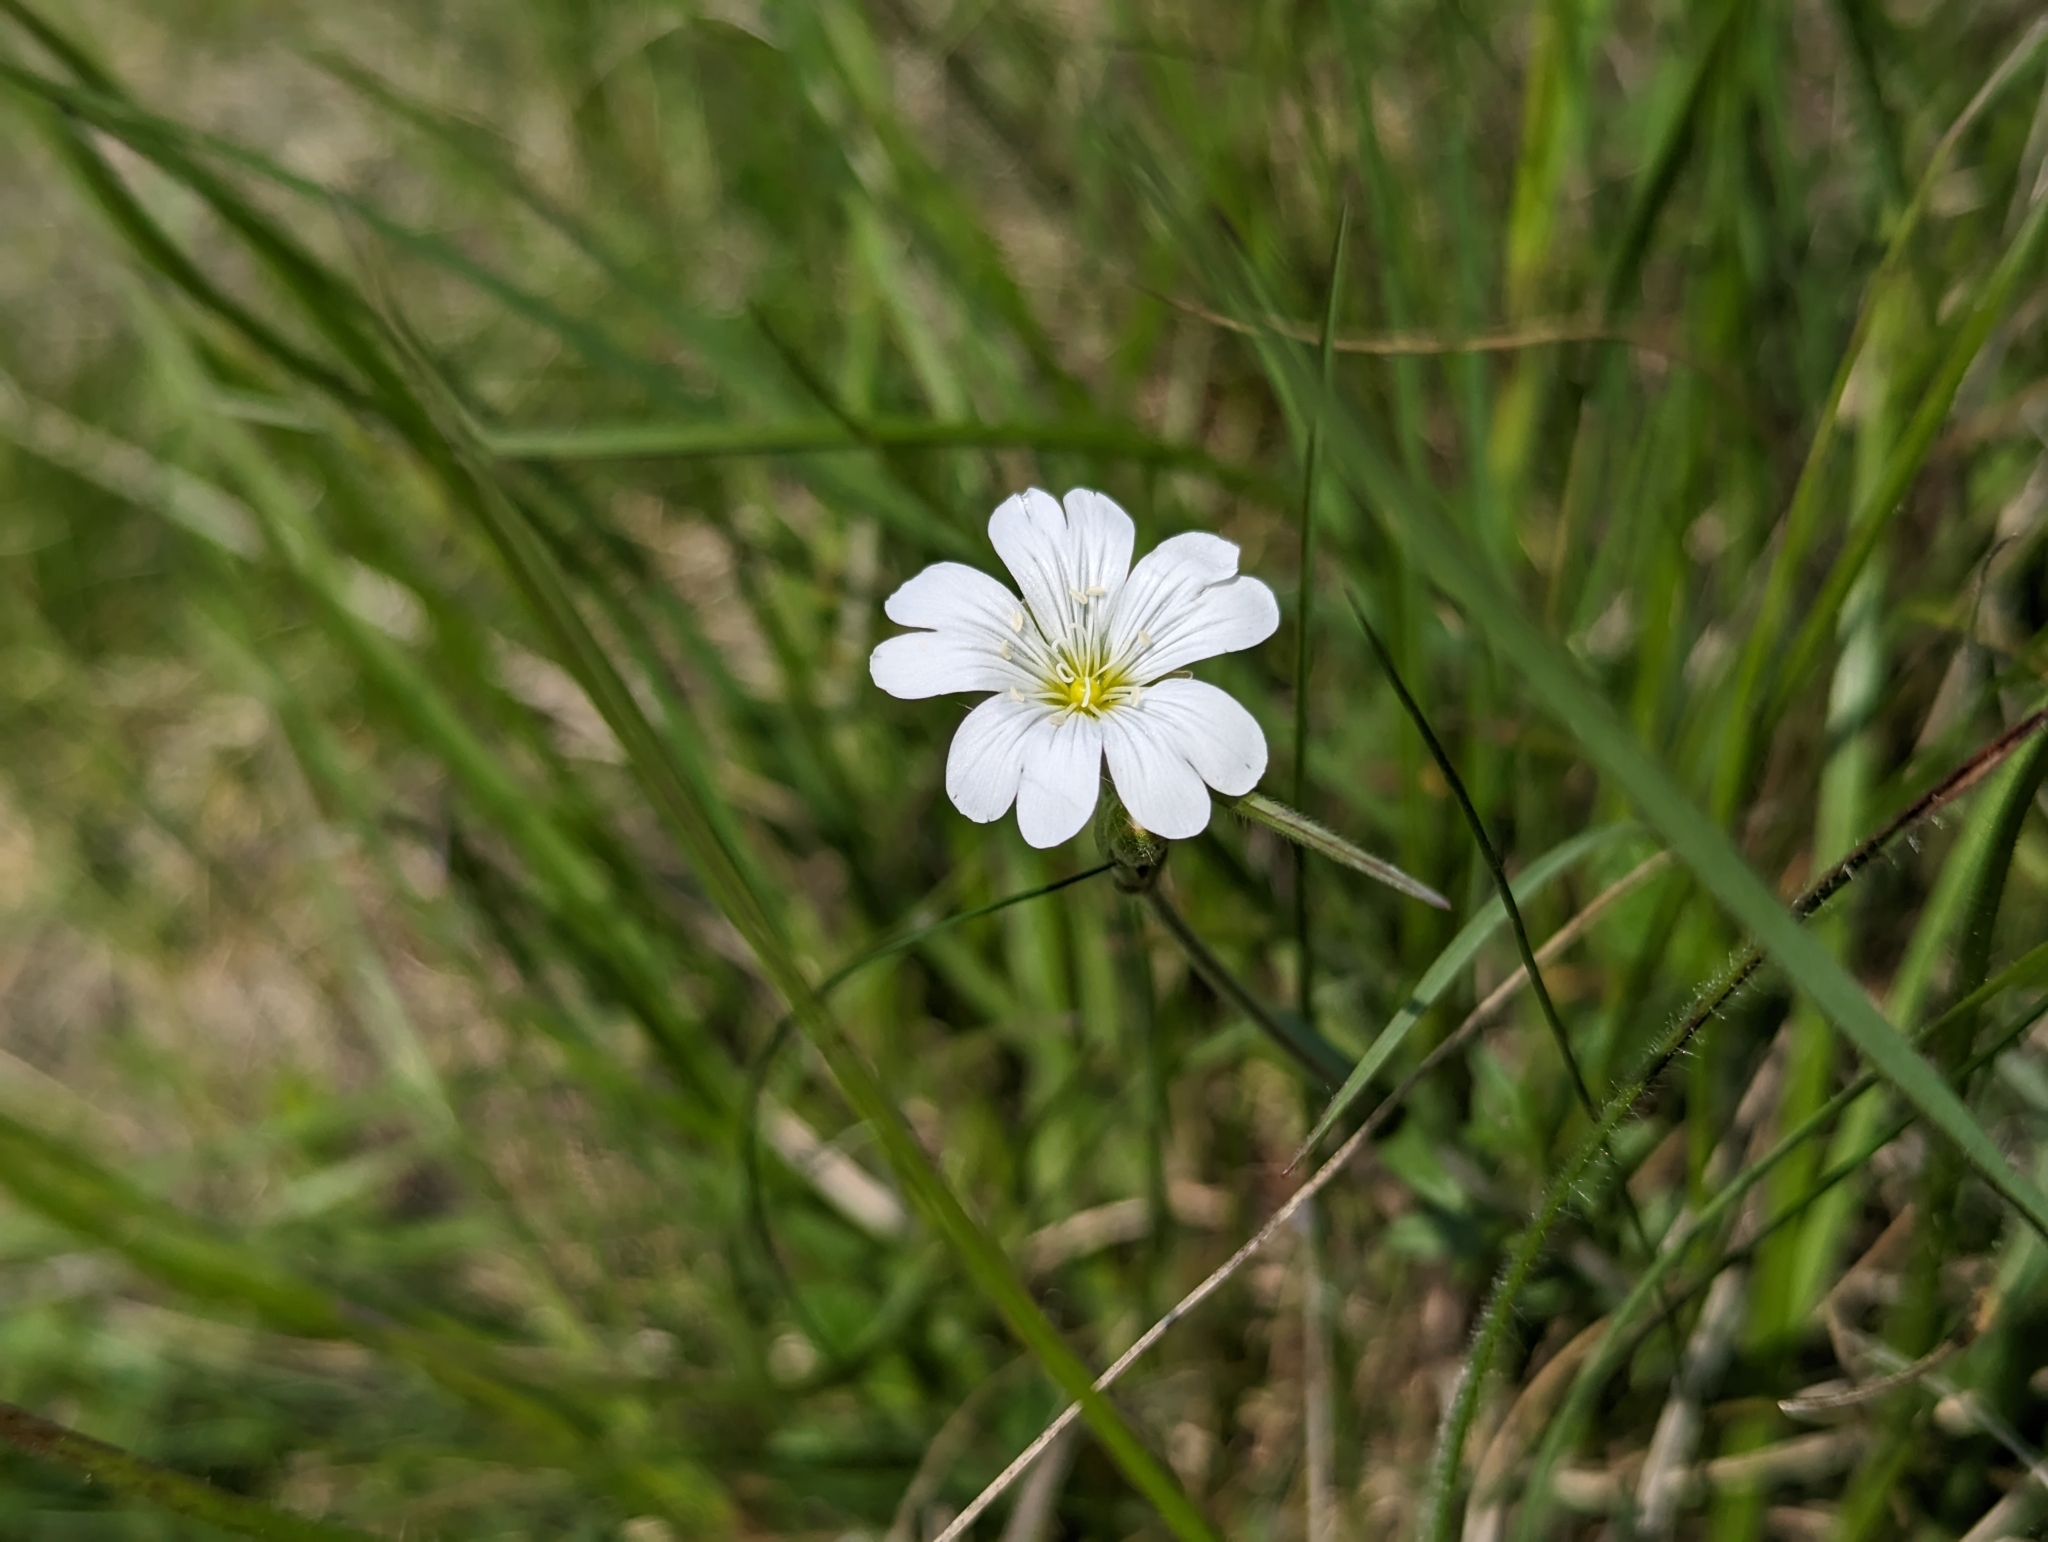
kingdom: Plantae
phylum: Tracheophyta
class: Magnoliopsida
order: Caryophyllales
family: Caryophyllaceae
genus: Cerastium
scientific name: Cerastium arvense
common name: Field mouse-ear
